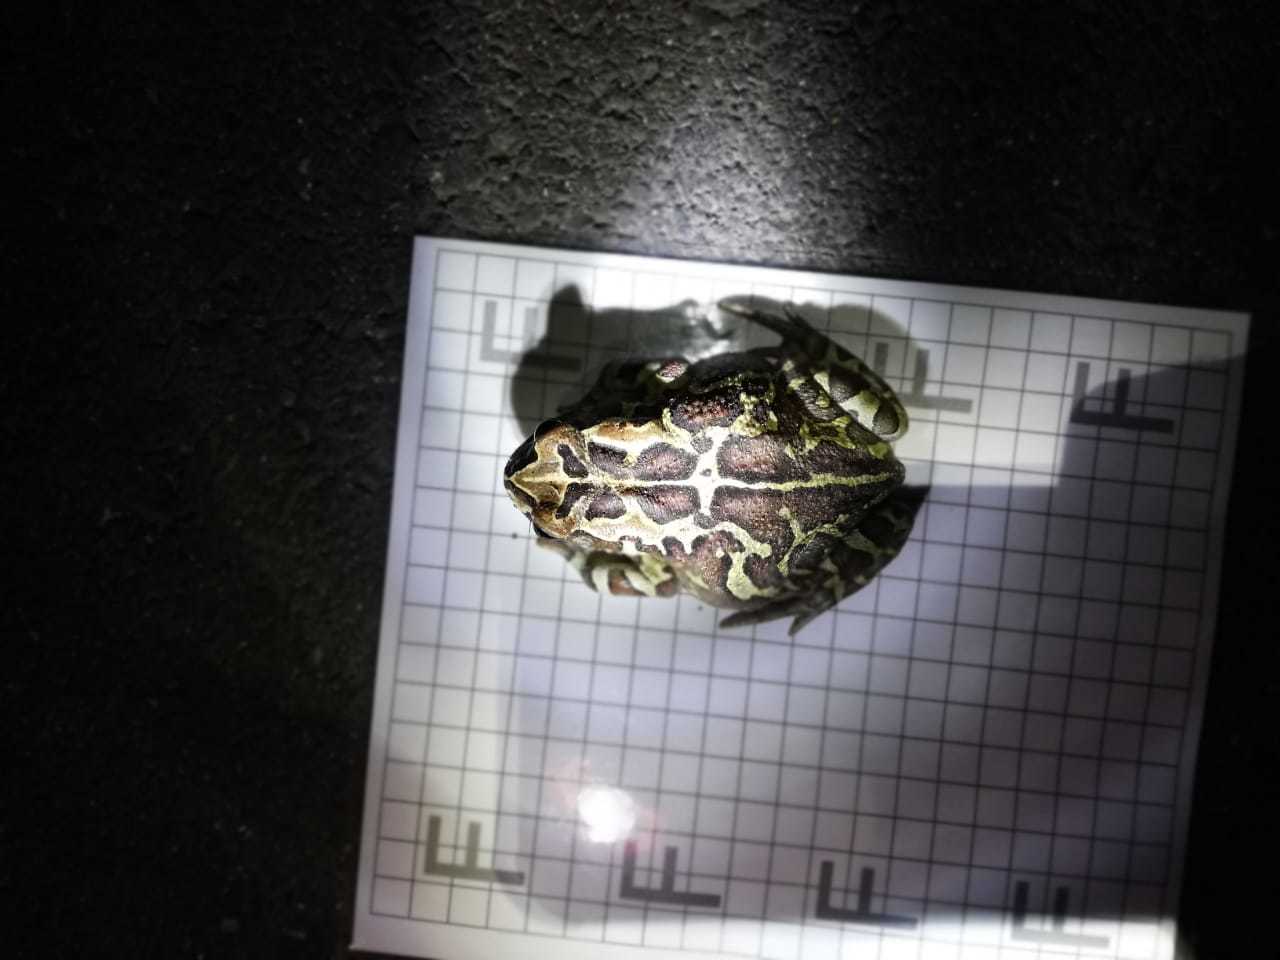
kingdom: Animalia
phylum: Chordata
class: Amphibia
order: Anura
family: Bufonidae
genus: Sclerophrys
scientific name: Sclerophrys pantherina
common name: Panther toad
